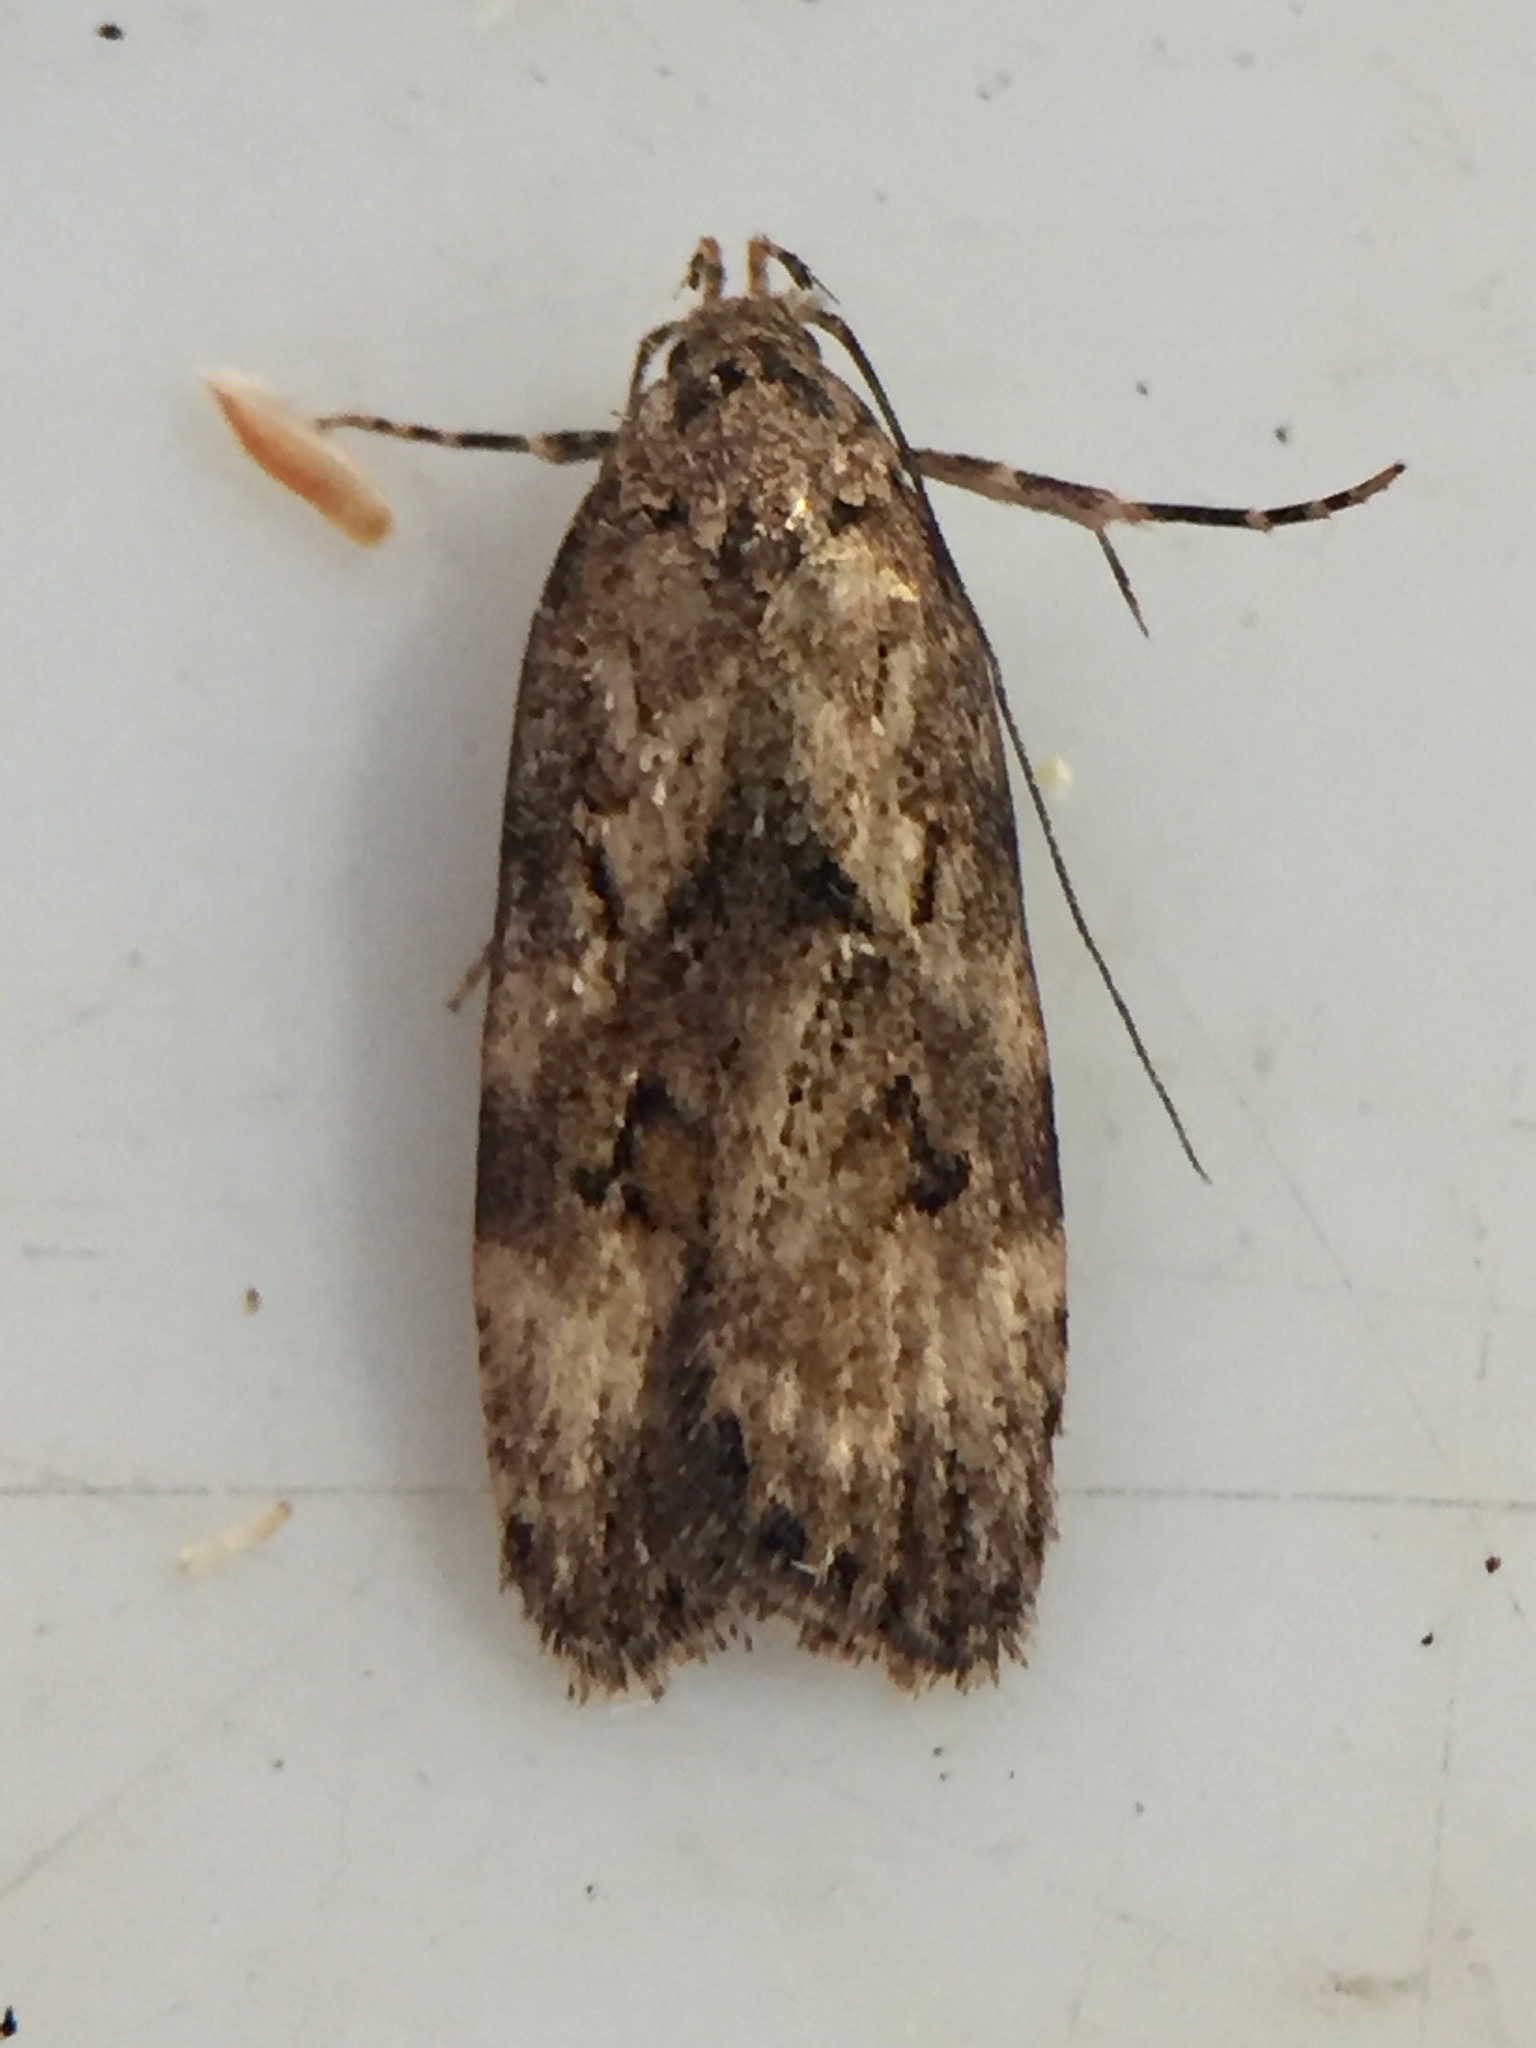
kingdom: Animalia
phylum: Arthropoda
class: Insecta
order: Lepidoptera
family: Oecophoridae
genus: Izatha
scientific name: Izatha austera
